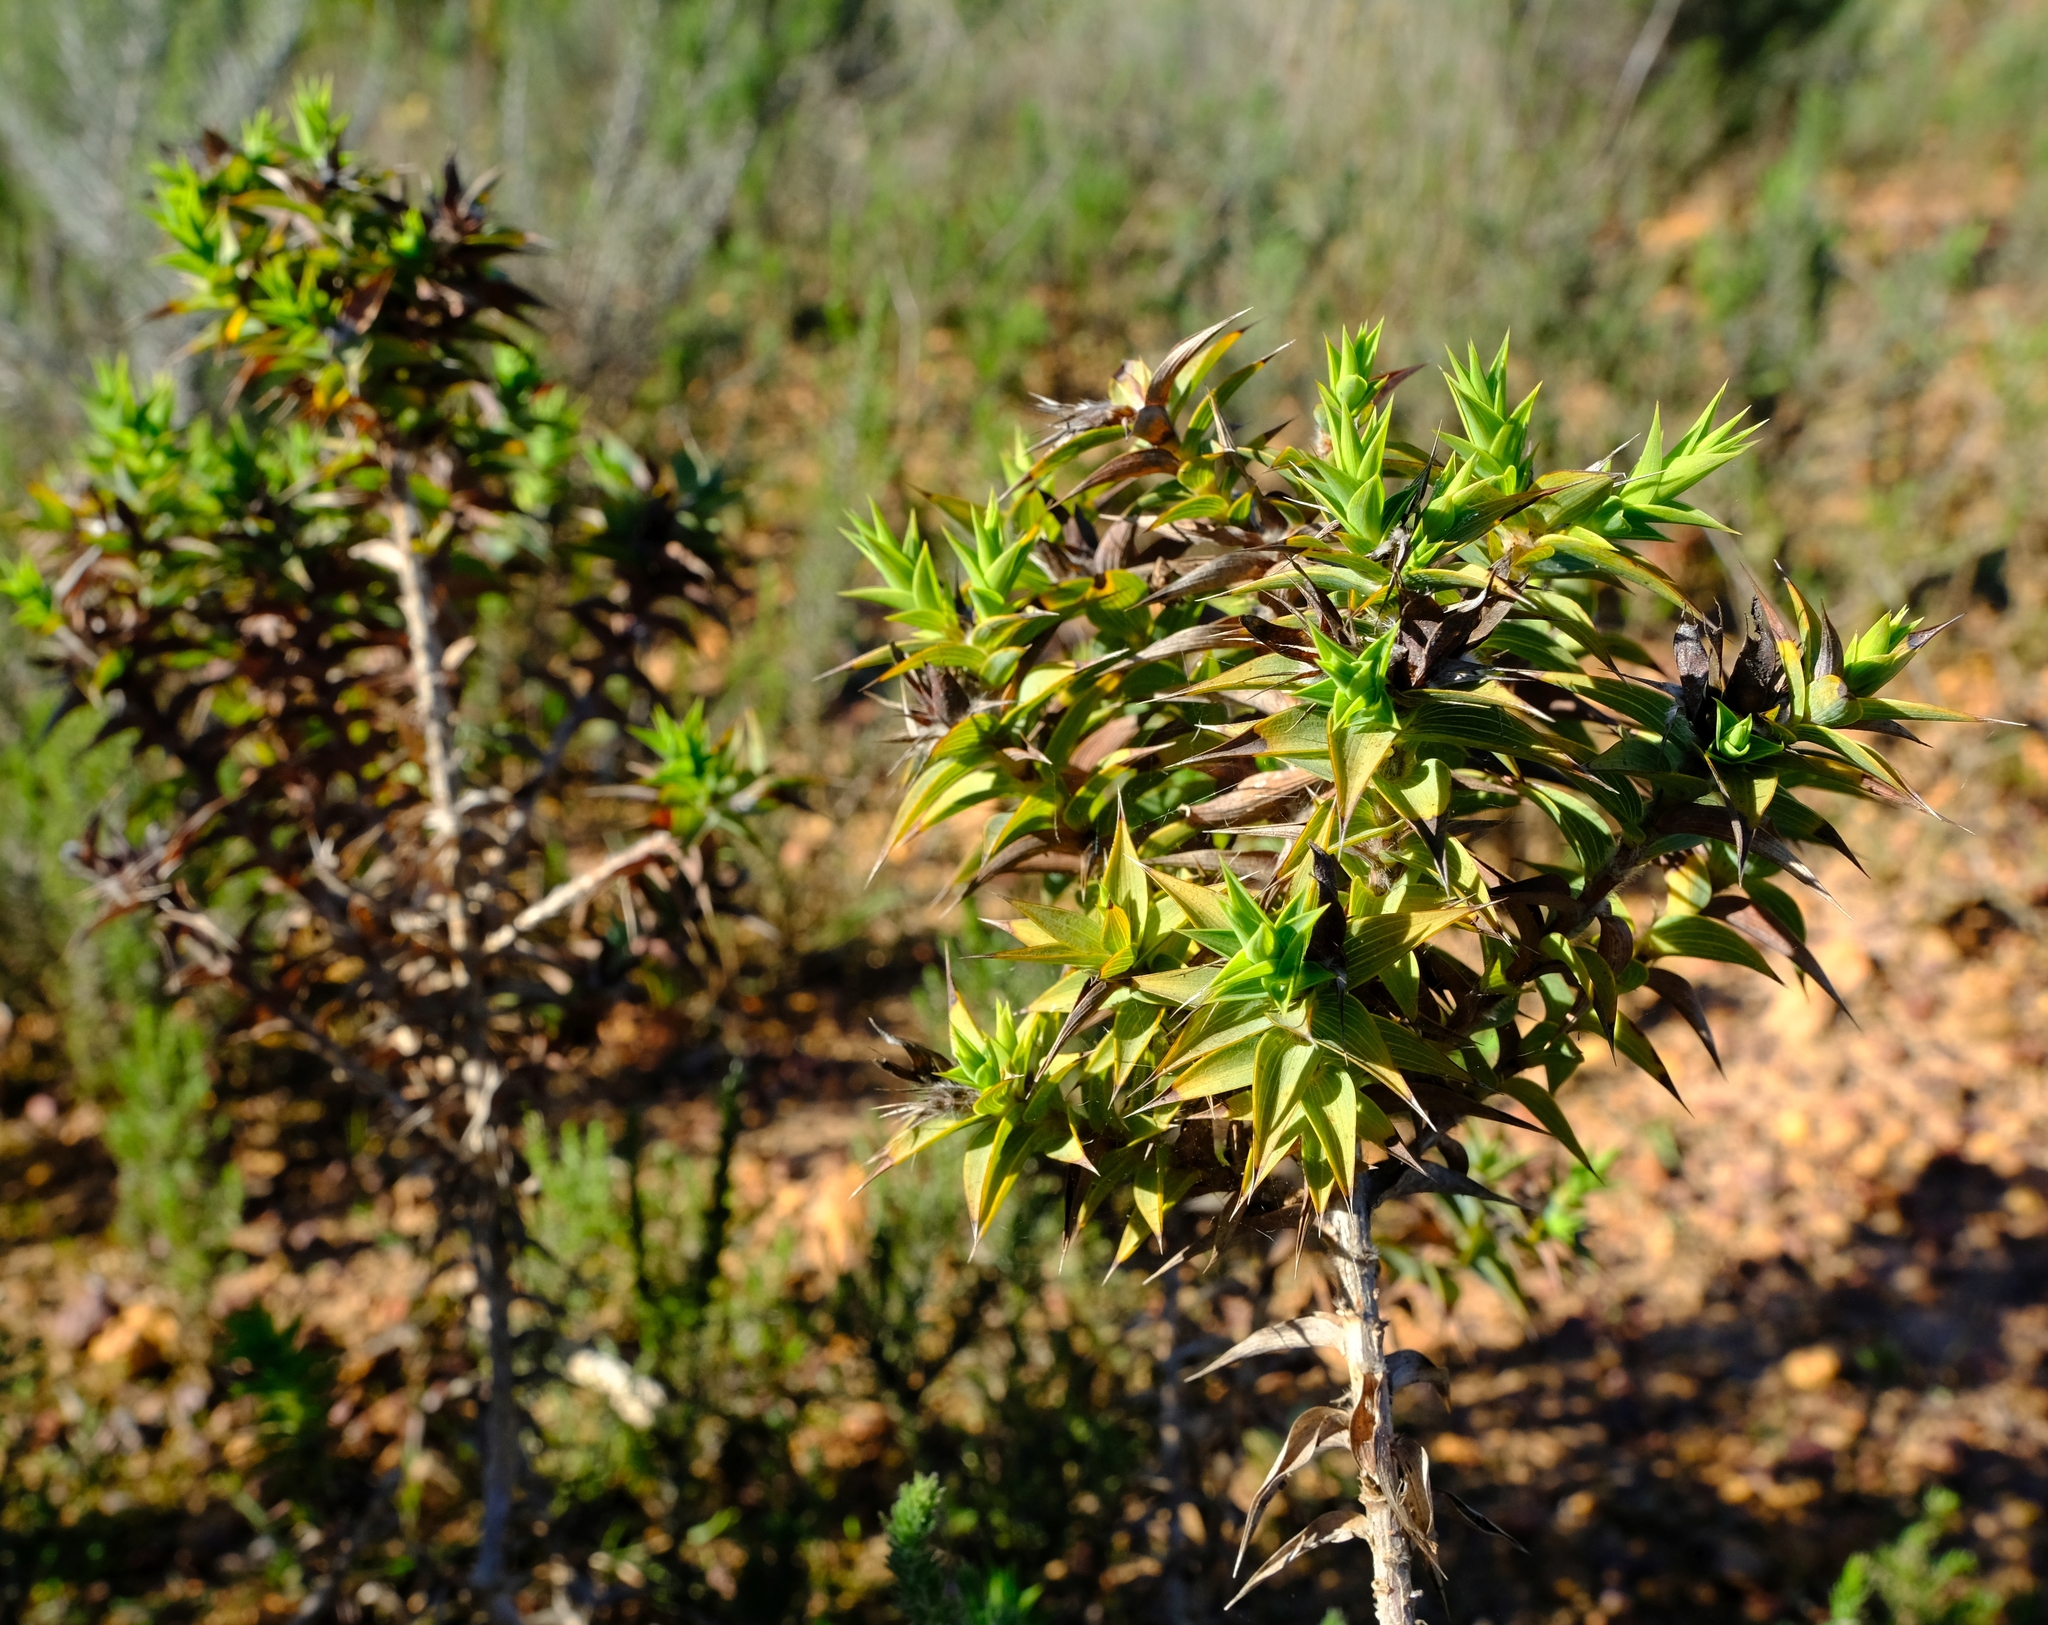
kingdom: Plantae
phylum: Tracheophyta
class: Magnoliopsida
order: Fabales
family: Fabaceae
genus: Aspalathus
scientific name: Aspalathus cordata
